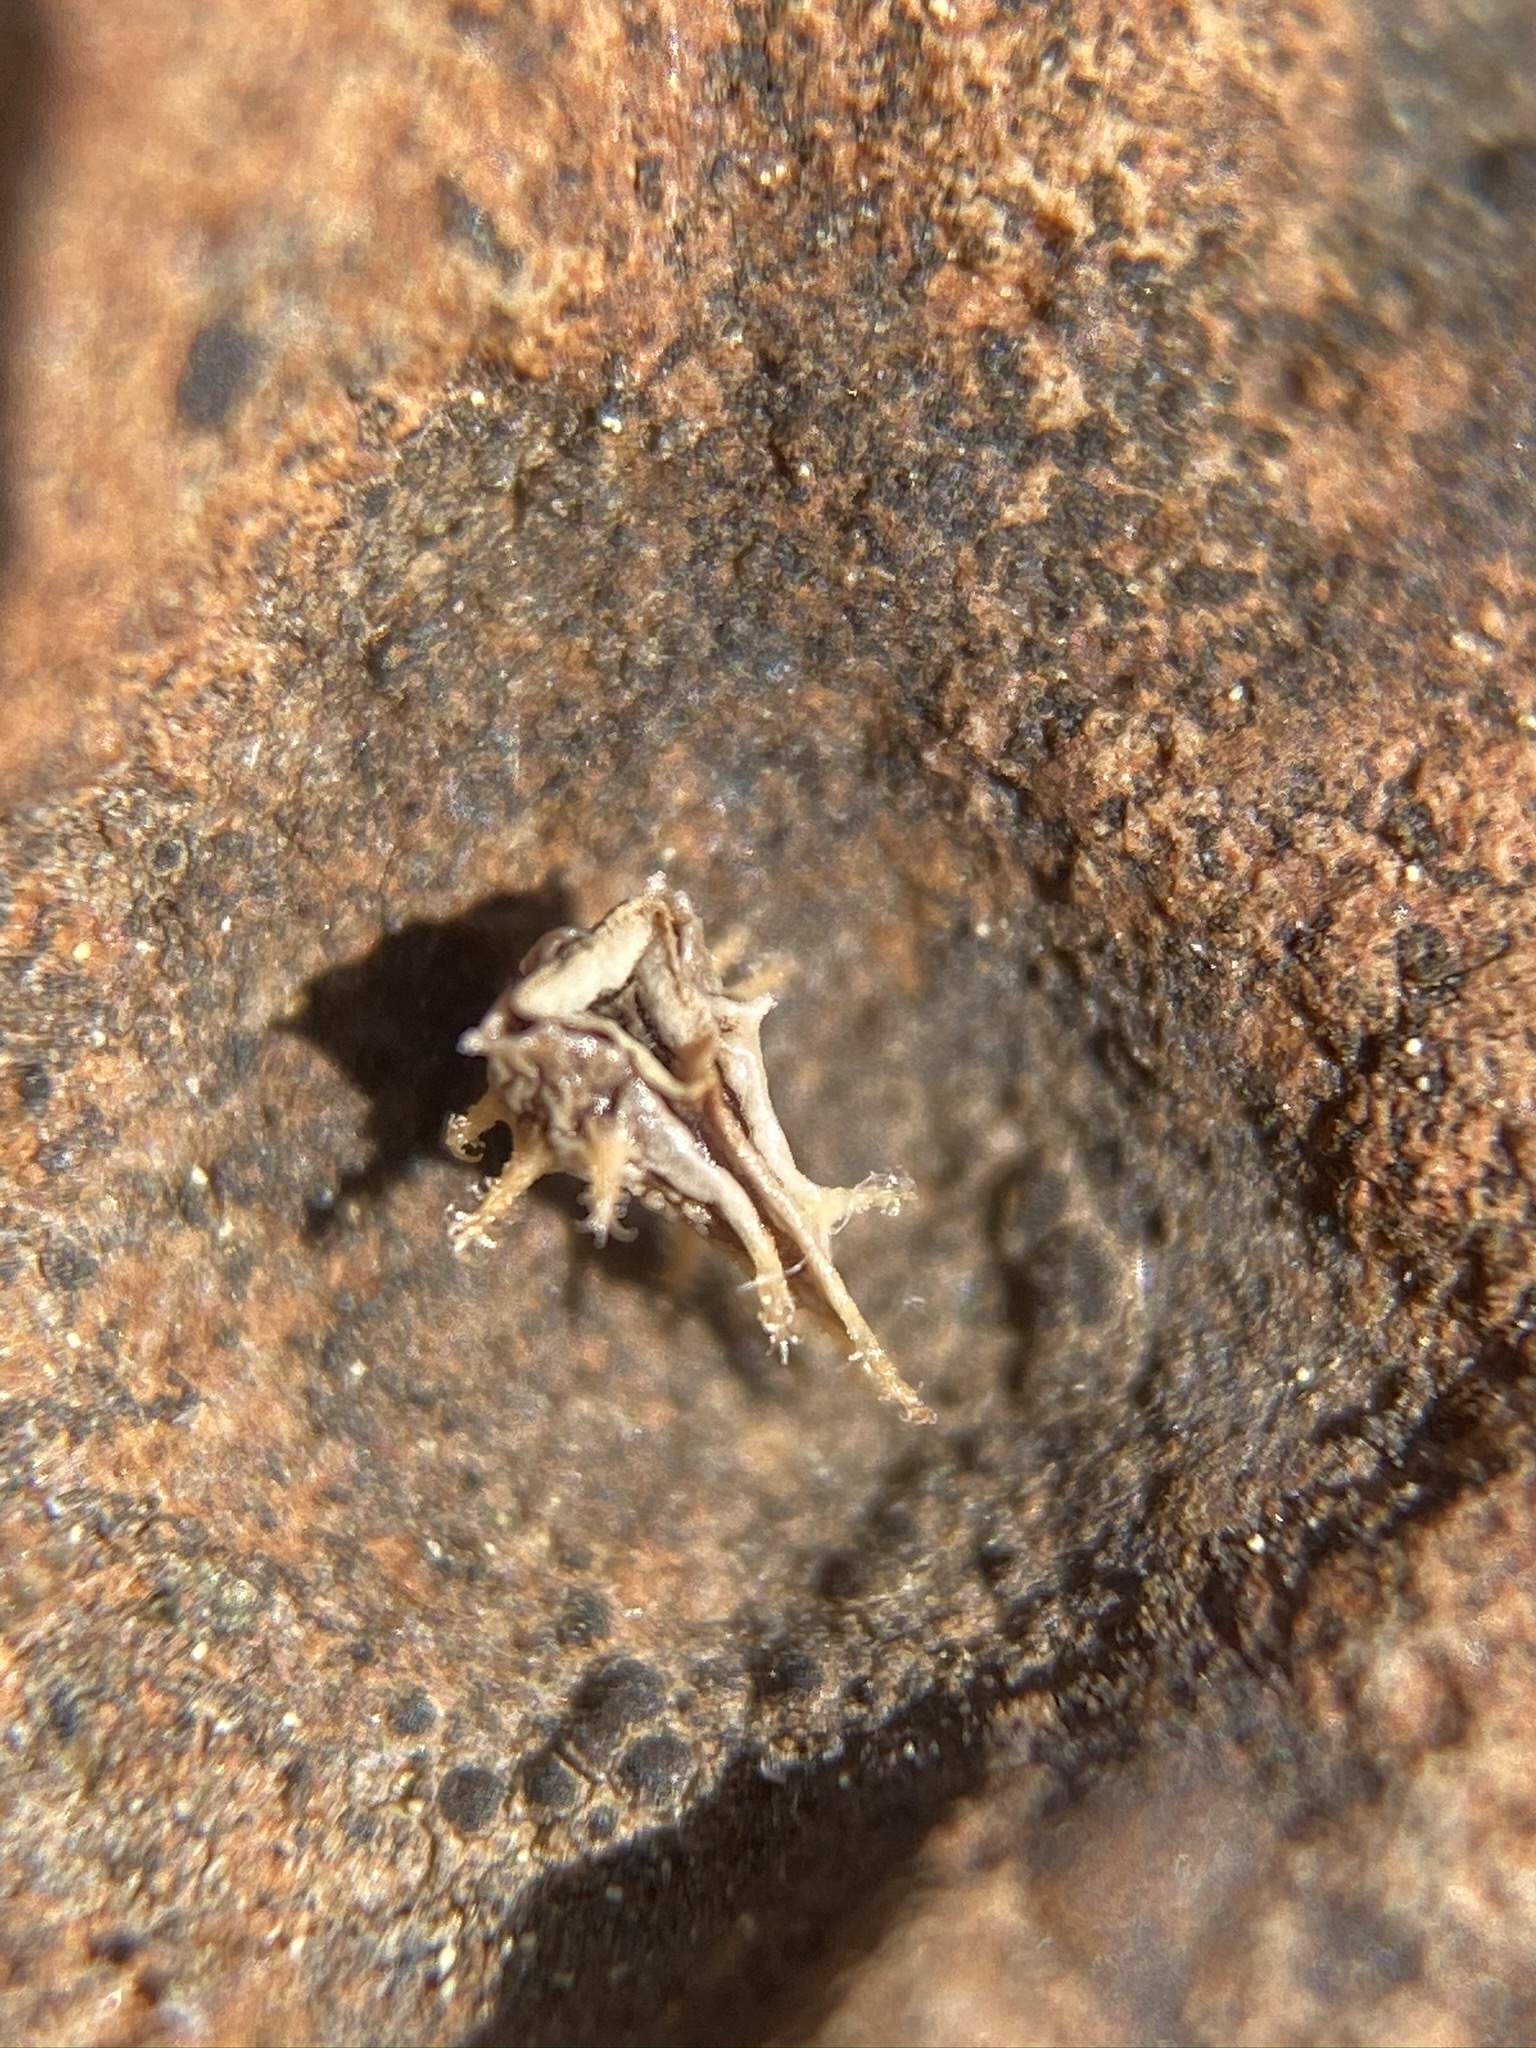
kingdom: Plantae
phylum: Tracheophyta
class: Magnoliopsida
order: Boraginales
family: Boraginaceae
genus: Plagiobothrys
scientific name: Plagiobothrys austinae
